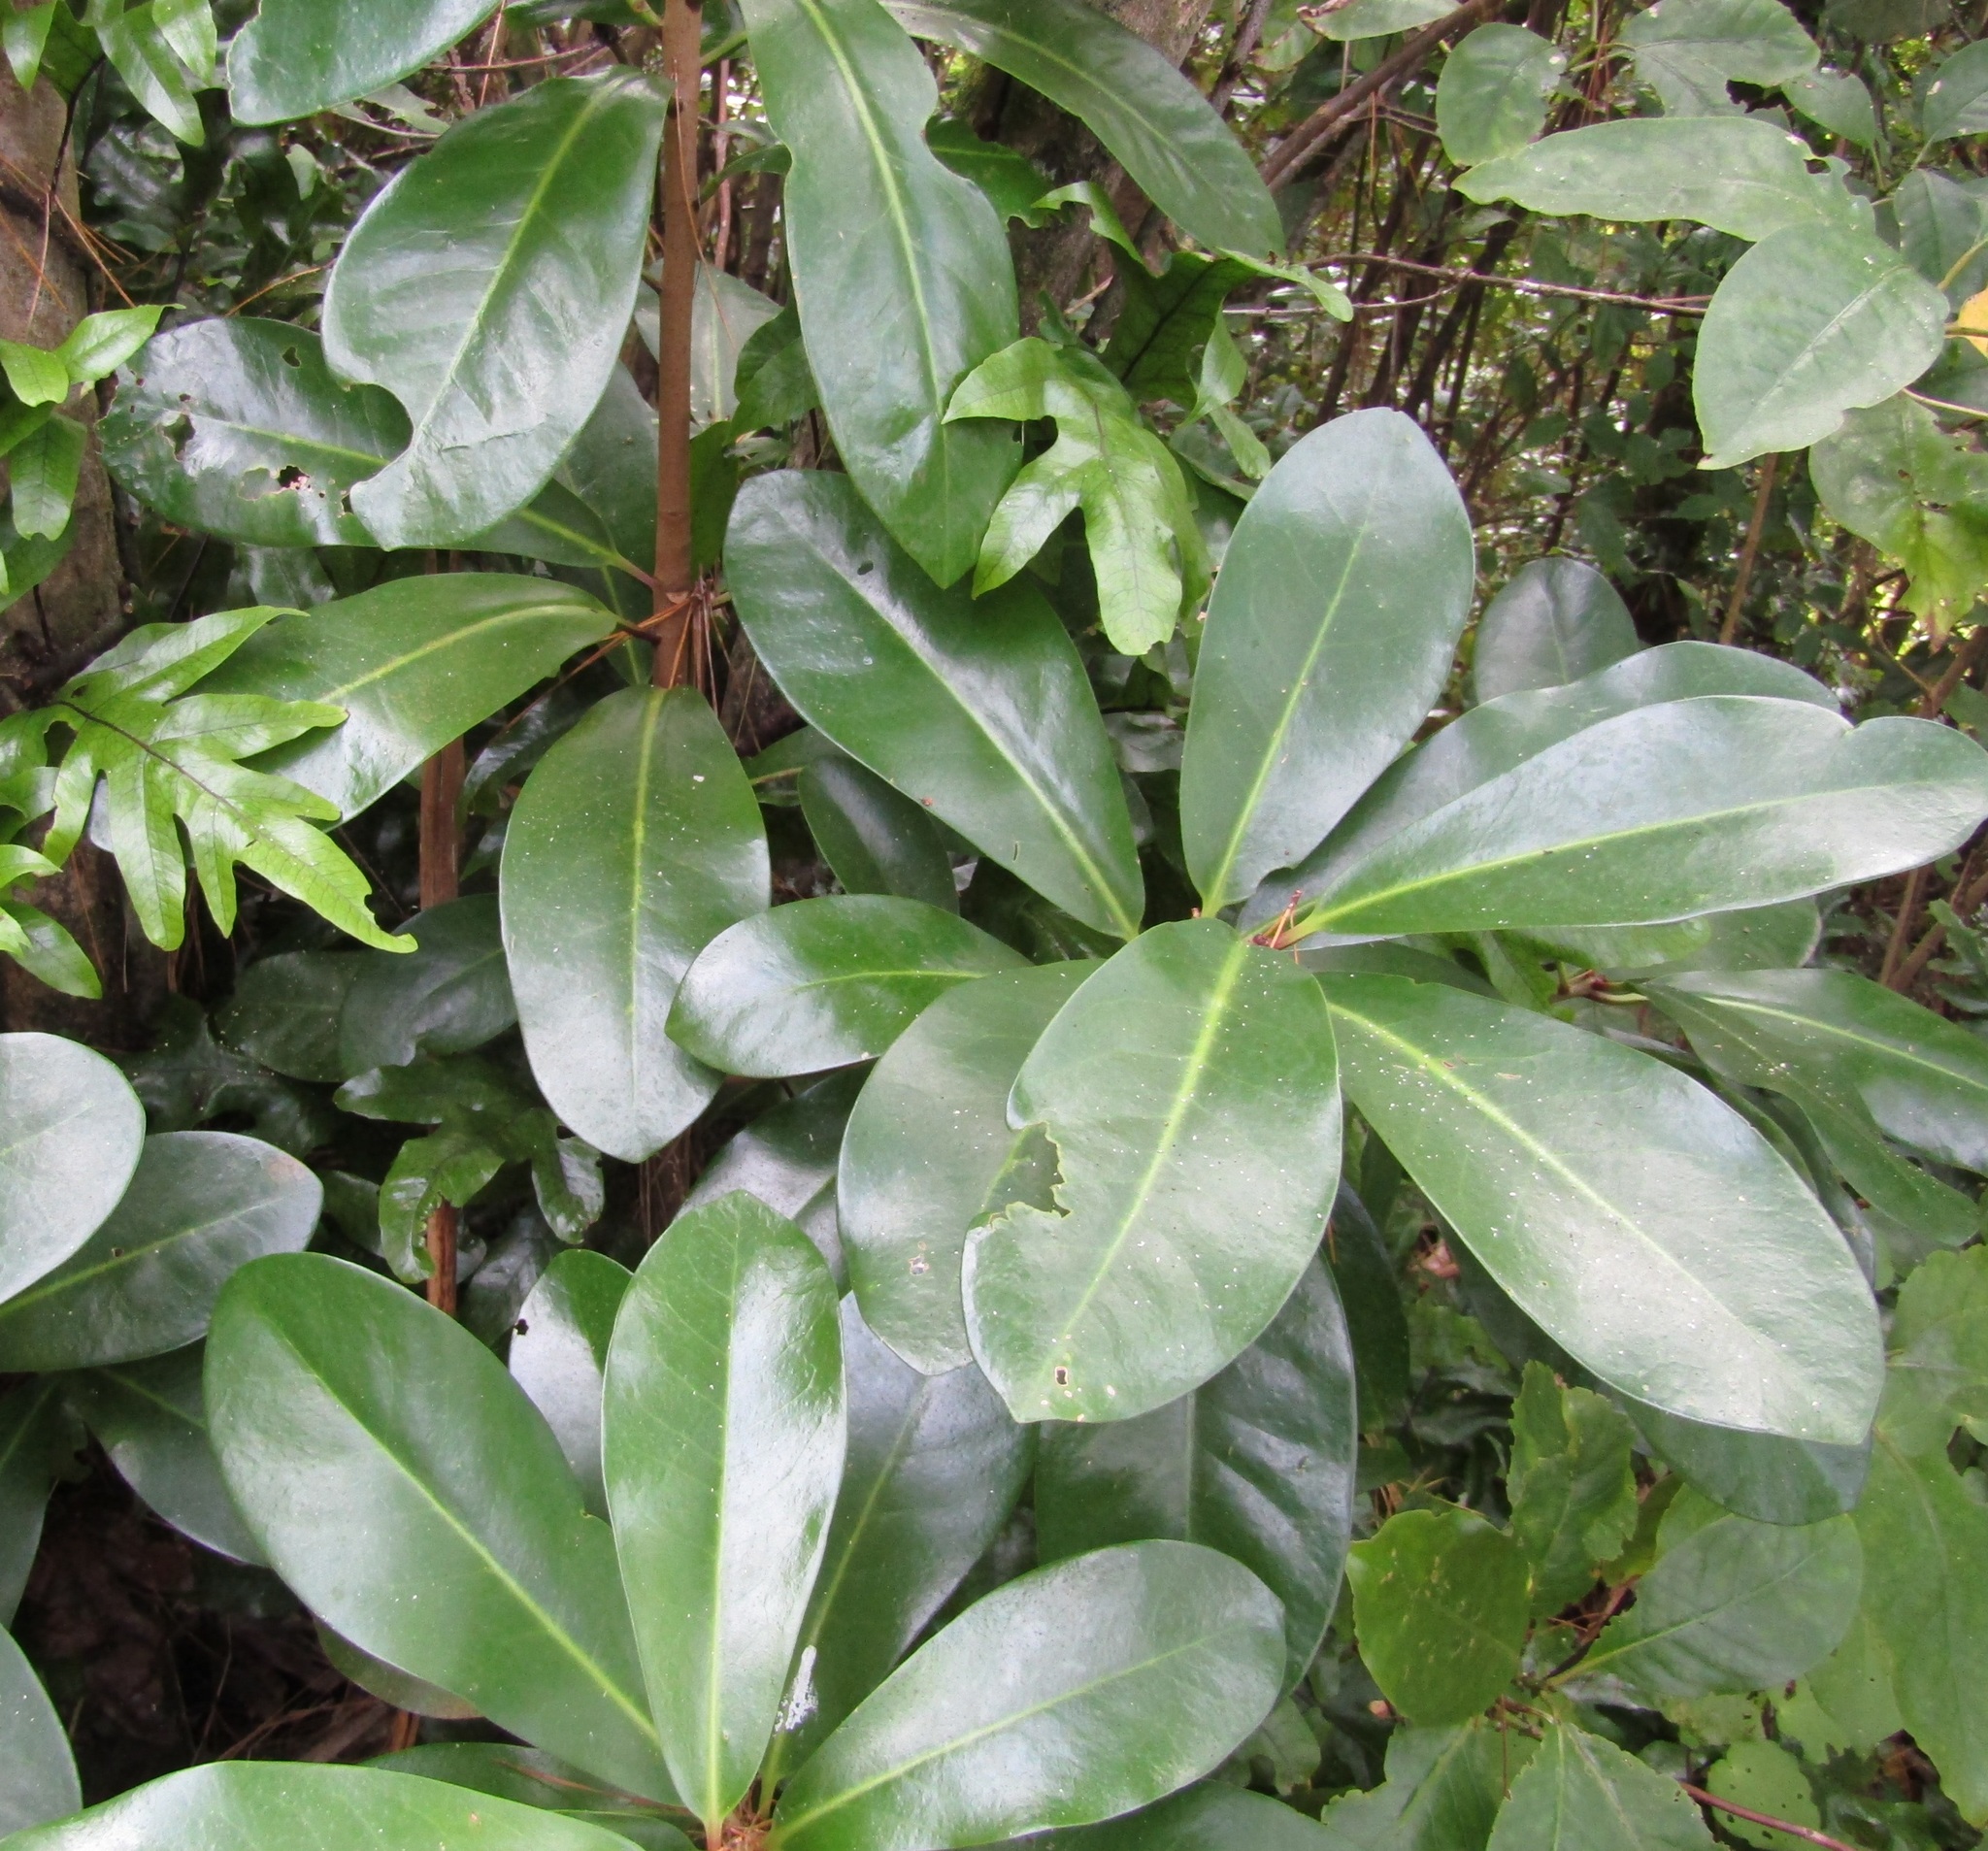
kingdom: Plantae
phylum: Tracheophyta
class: Magnoliopsida
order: Cucurbitales
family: Corynocarpaceae
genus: Corynocarpus
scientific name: Corynocarpus laevigatus
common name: New zealand laurel
